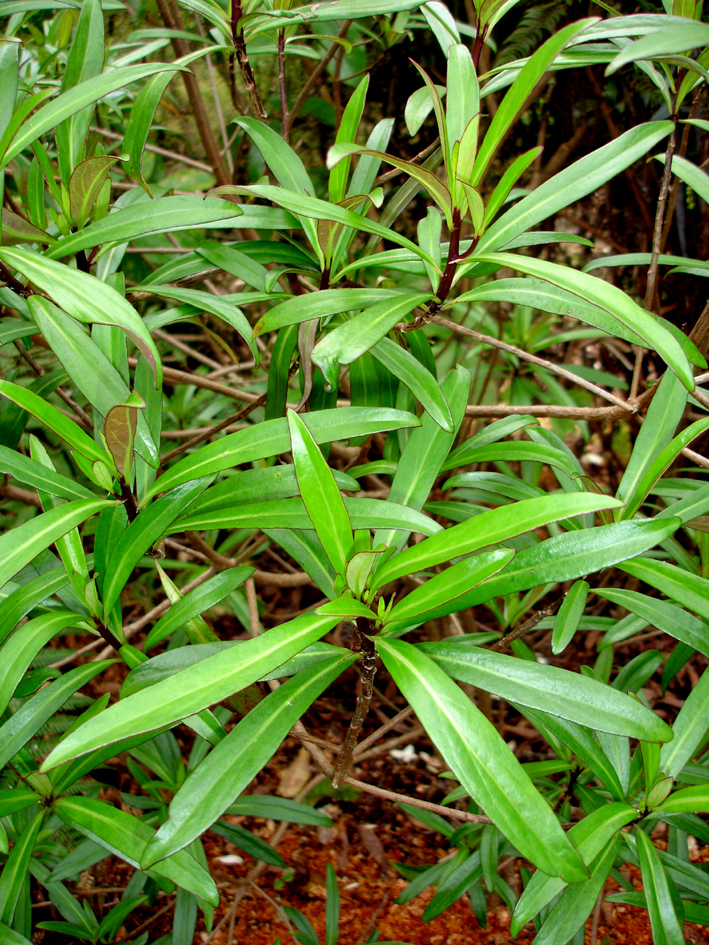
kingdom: Plantae
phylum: Tracheophyta
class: Magnoliopsida
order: Asterales
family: Asteraceae
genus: Brachyglottis
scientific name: Brachyglottis kirkii
